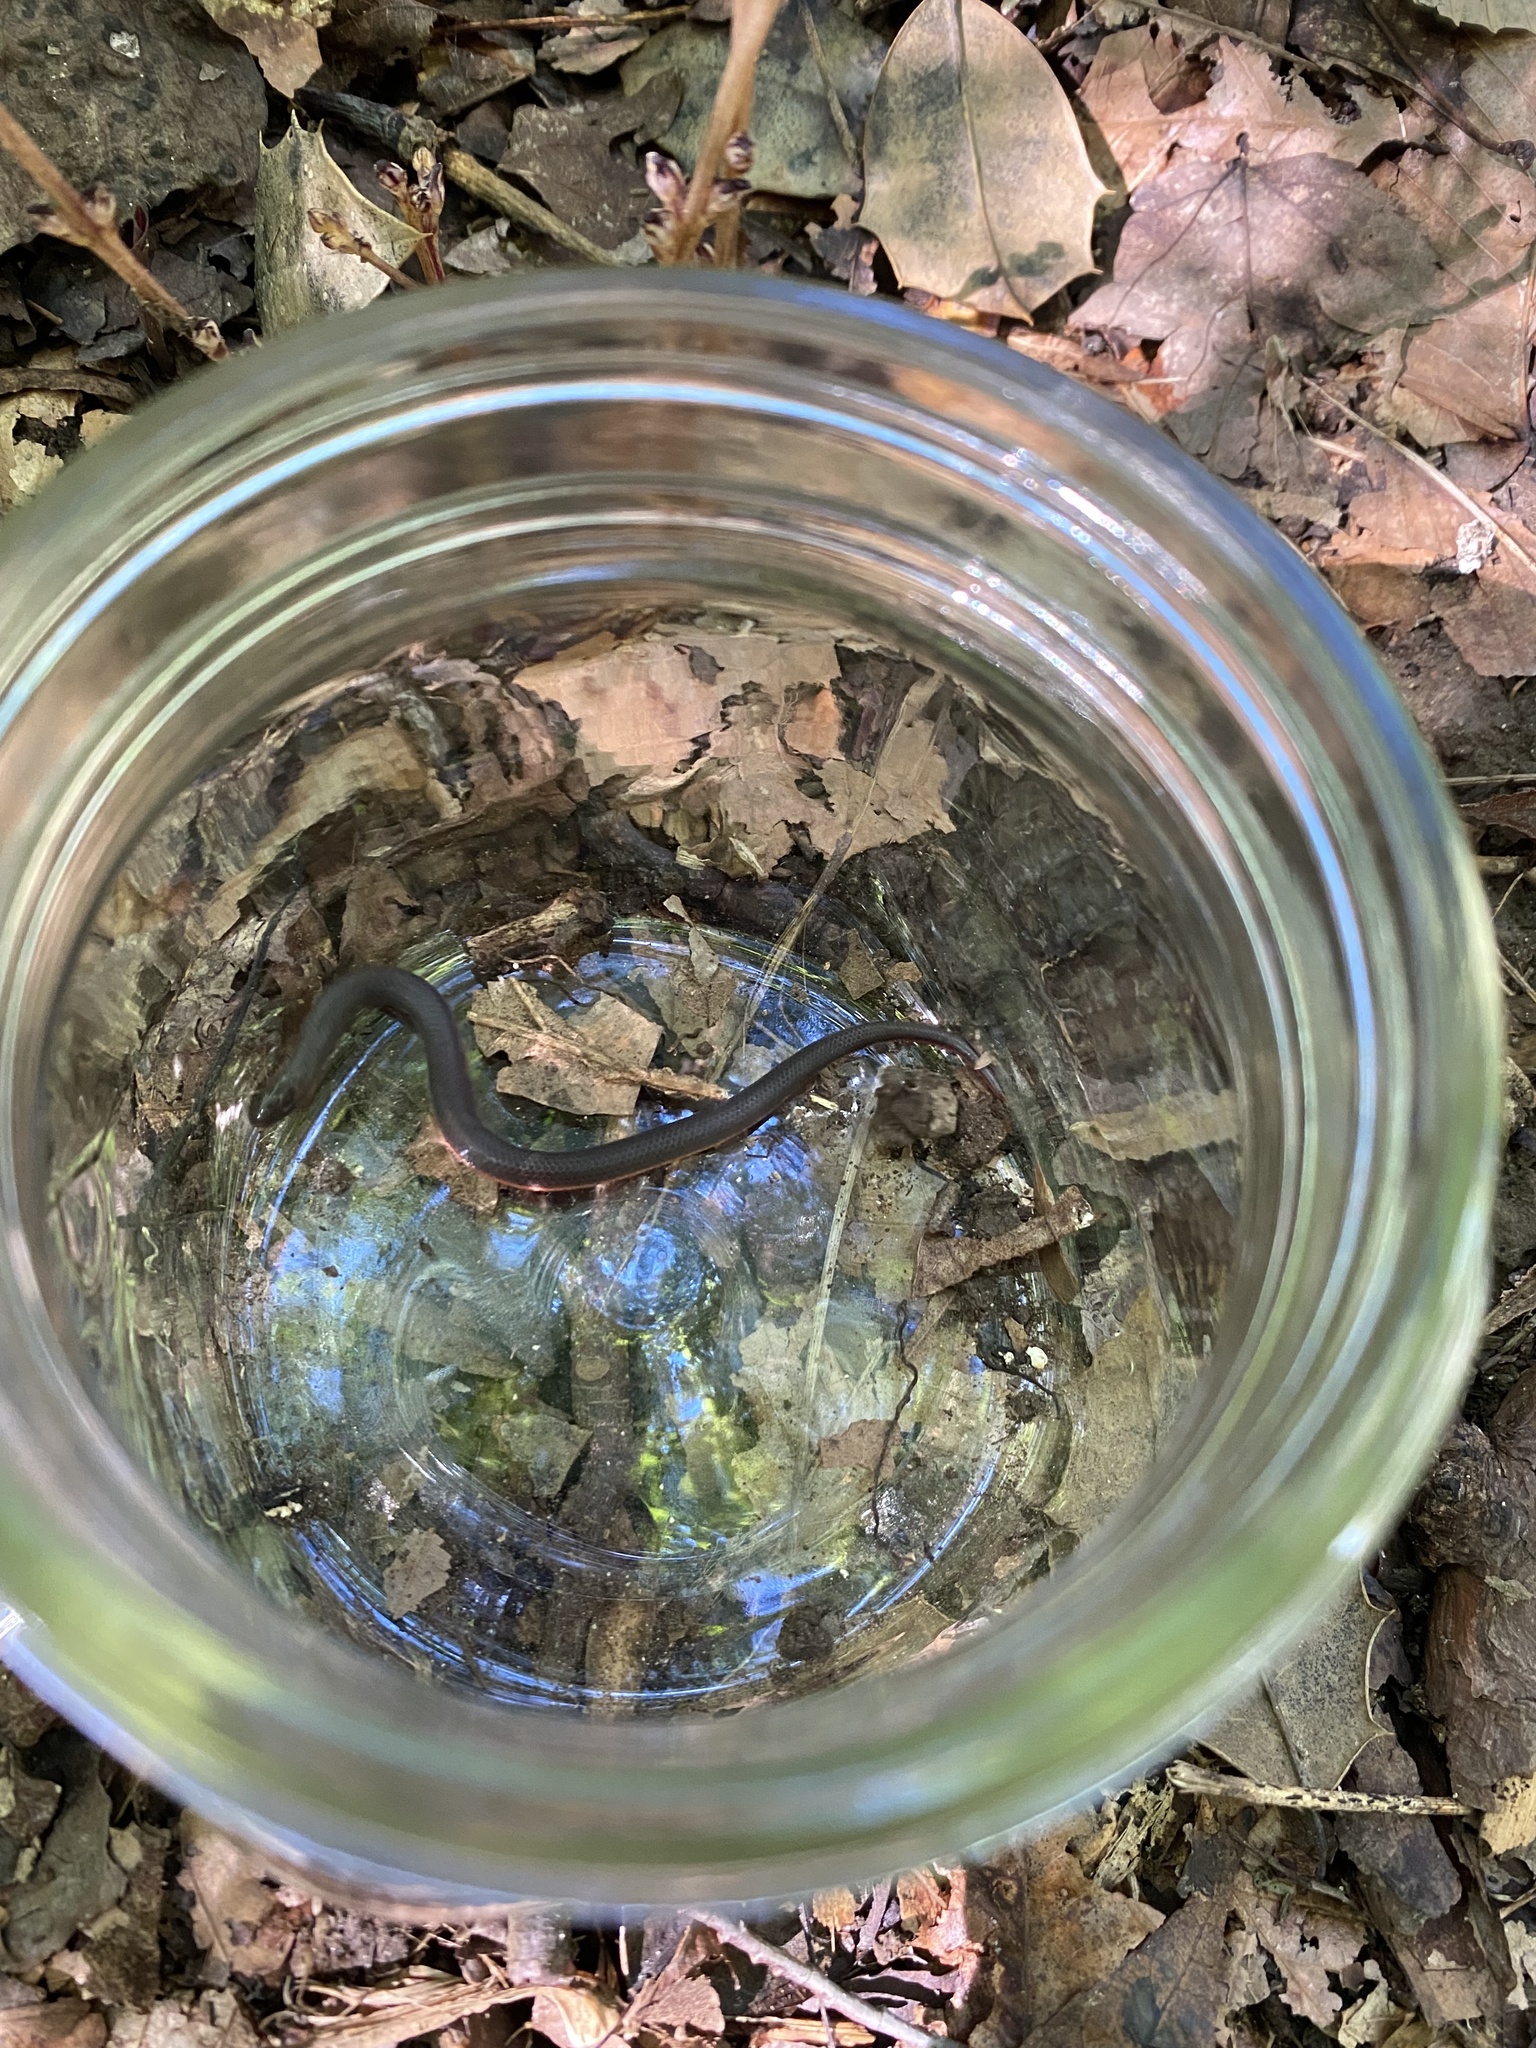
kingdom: Animalia
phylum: Chordata
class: Squamata
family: Colubridae
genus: Carphophis
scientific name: Carphophis amoenus
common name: Eastern worm snake
